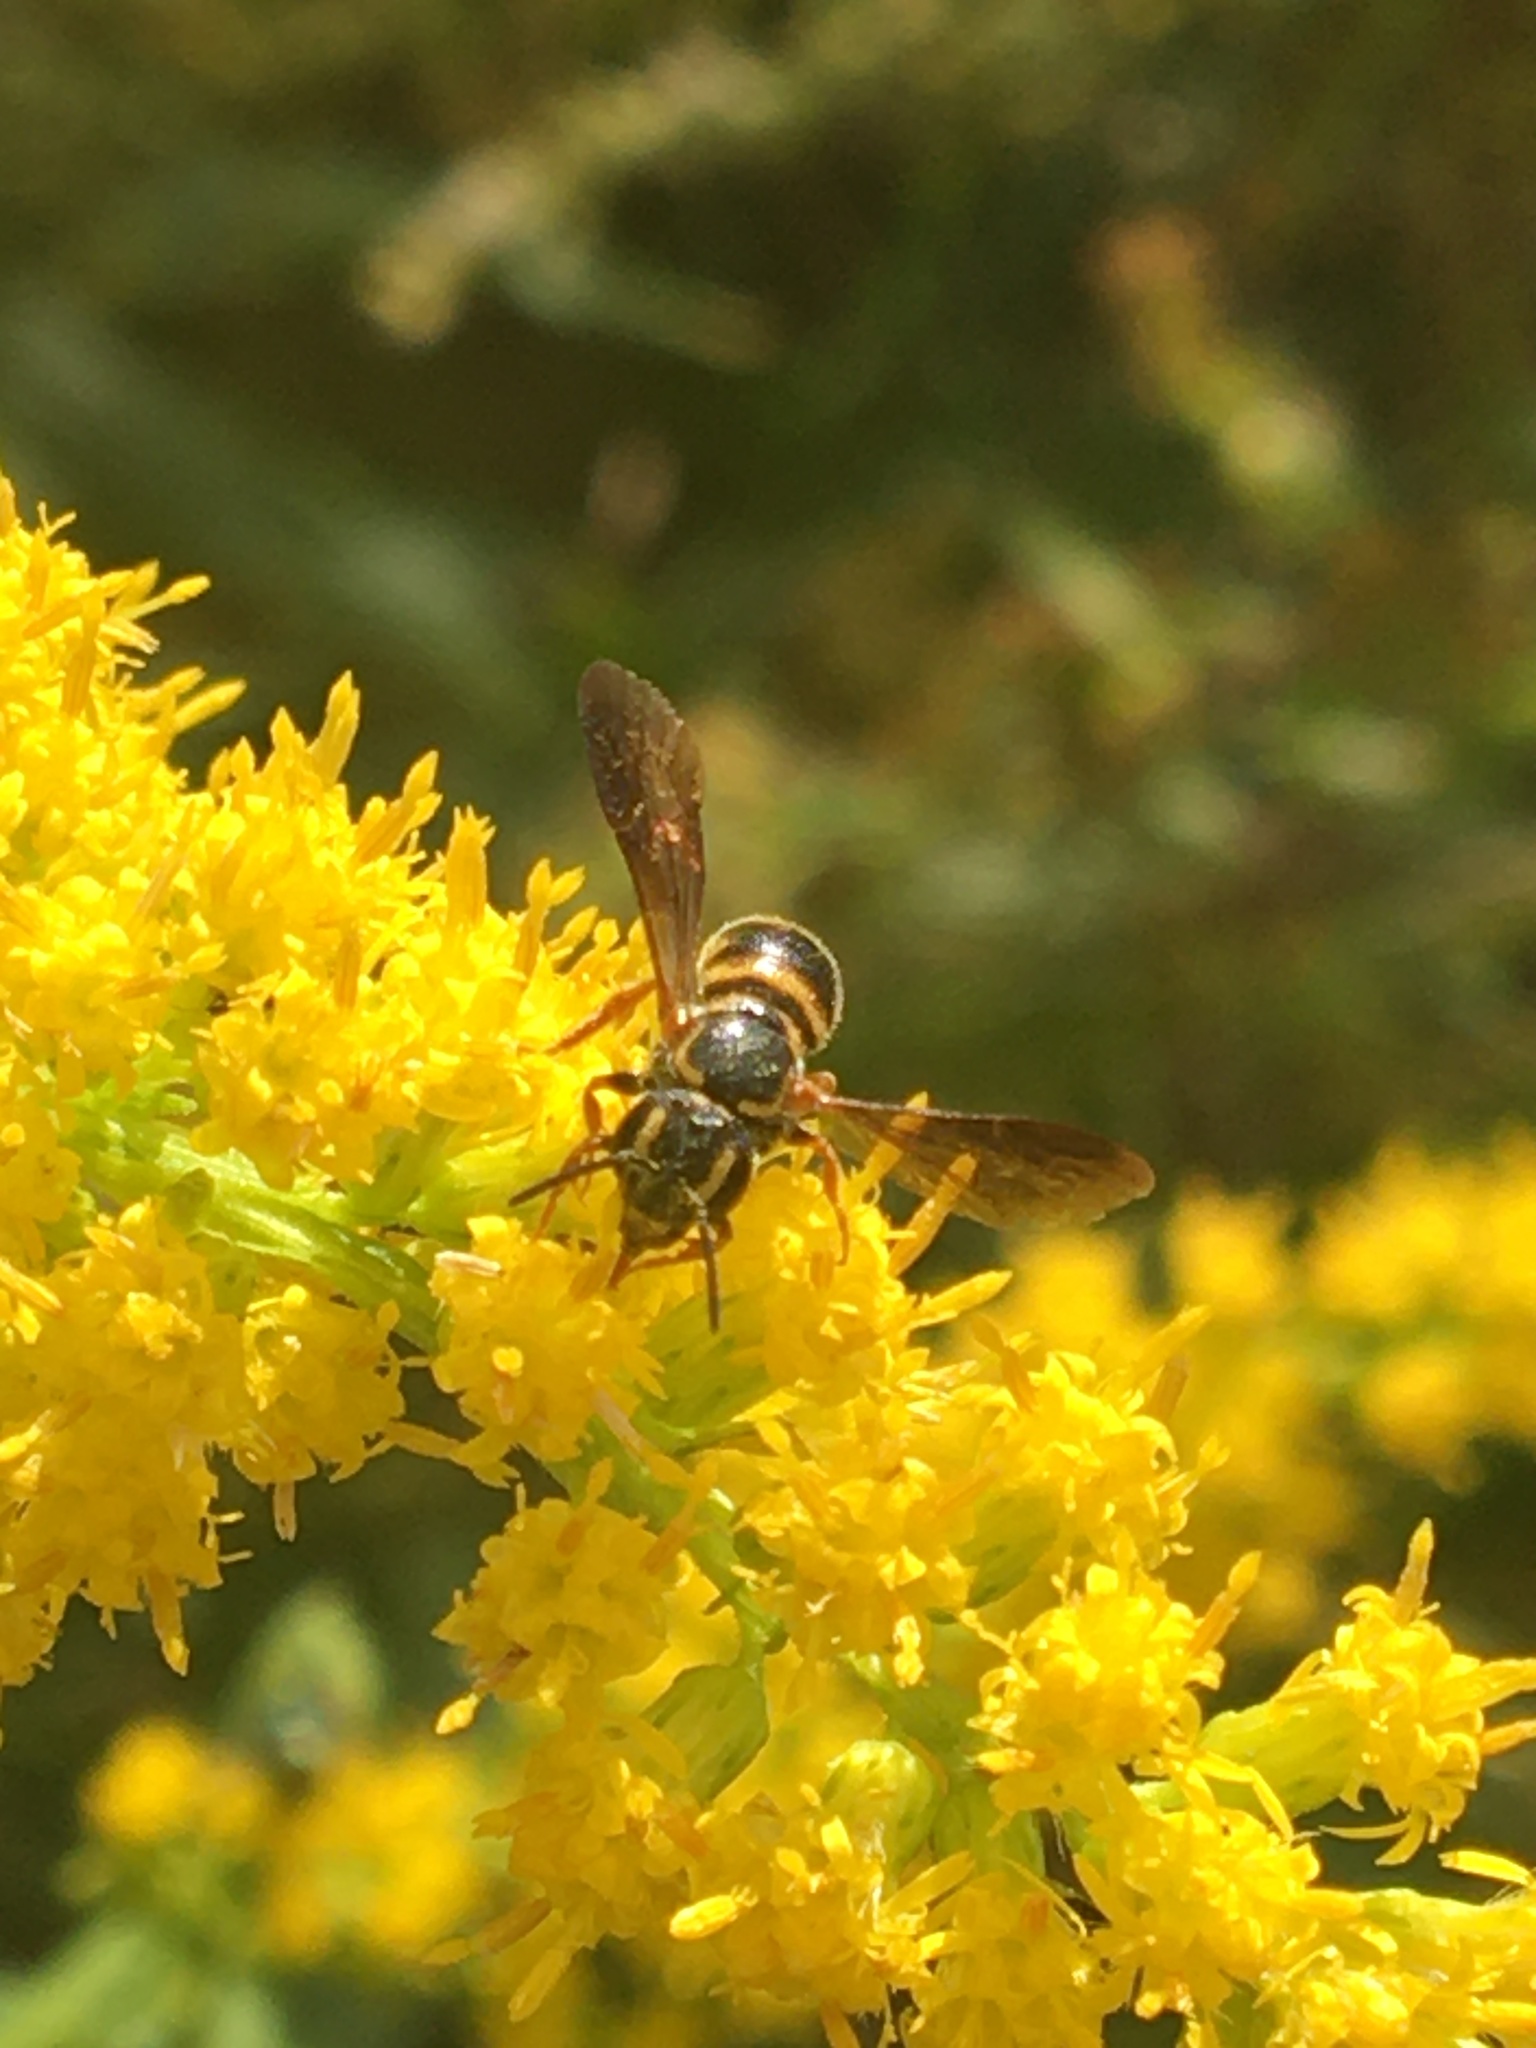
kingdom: Animalia
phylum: Arthropoda
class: Insecta
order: Hymenoptera
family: Megachilidae
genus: Stelis
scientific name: Stelis louisae
